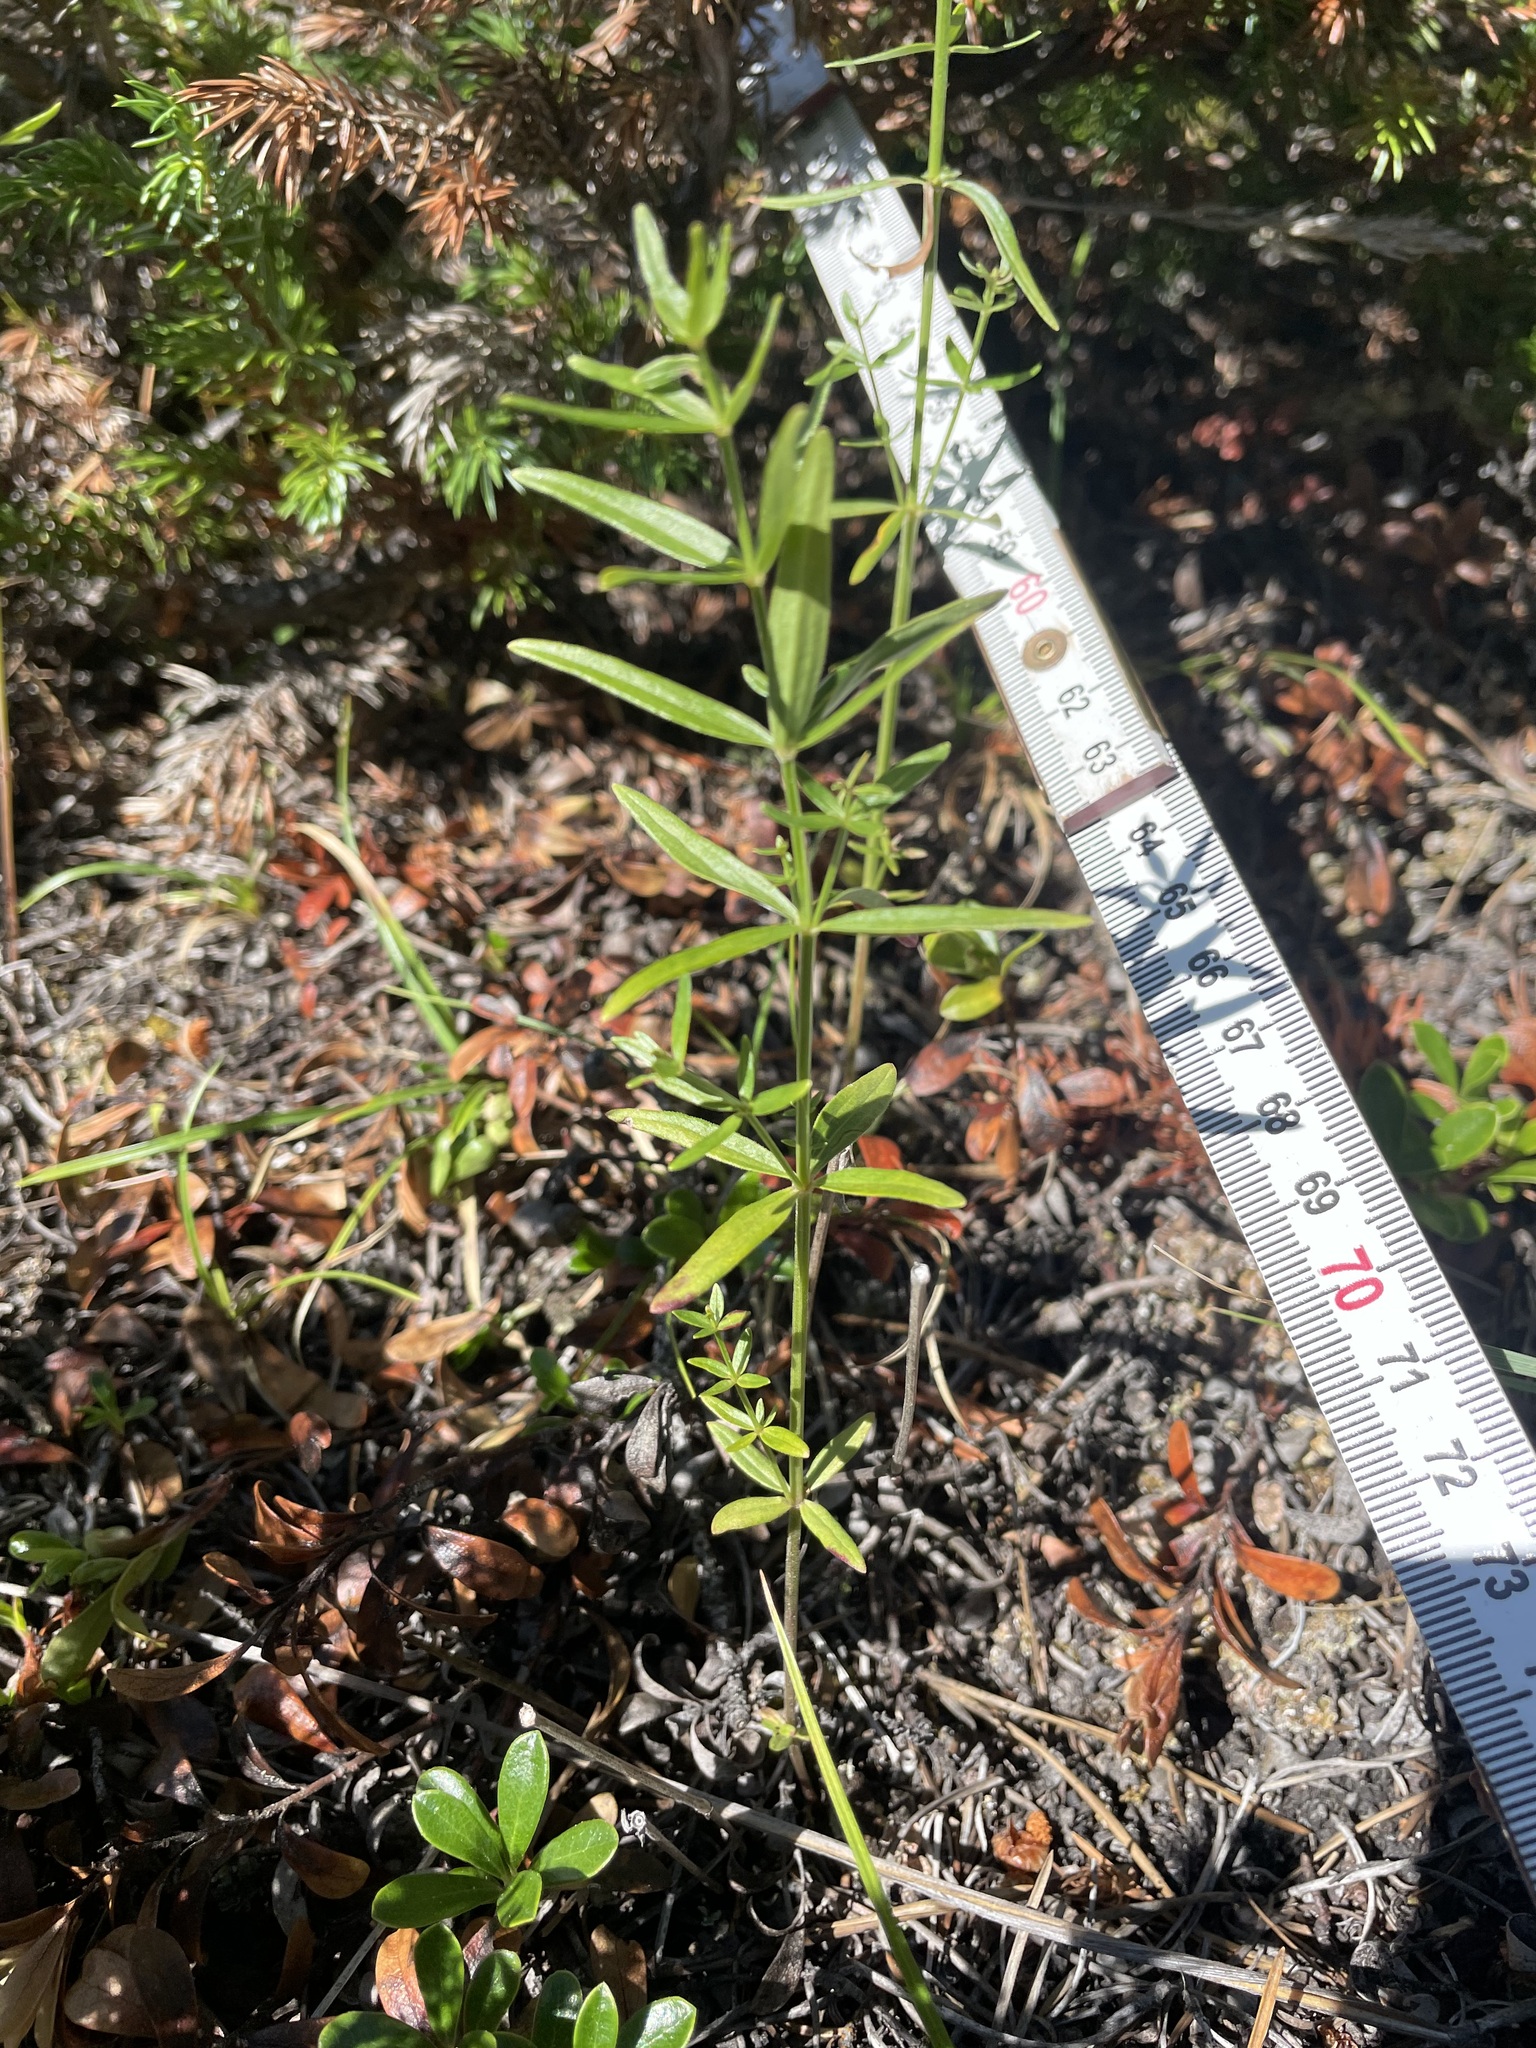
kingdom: Plantae
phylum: Tracheophyta
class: Magnoliopsida
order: Gentianales
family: Rubiaceae
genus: Galium
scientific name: Galium boreale
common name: Northern bedstraw
